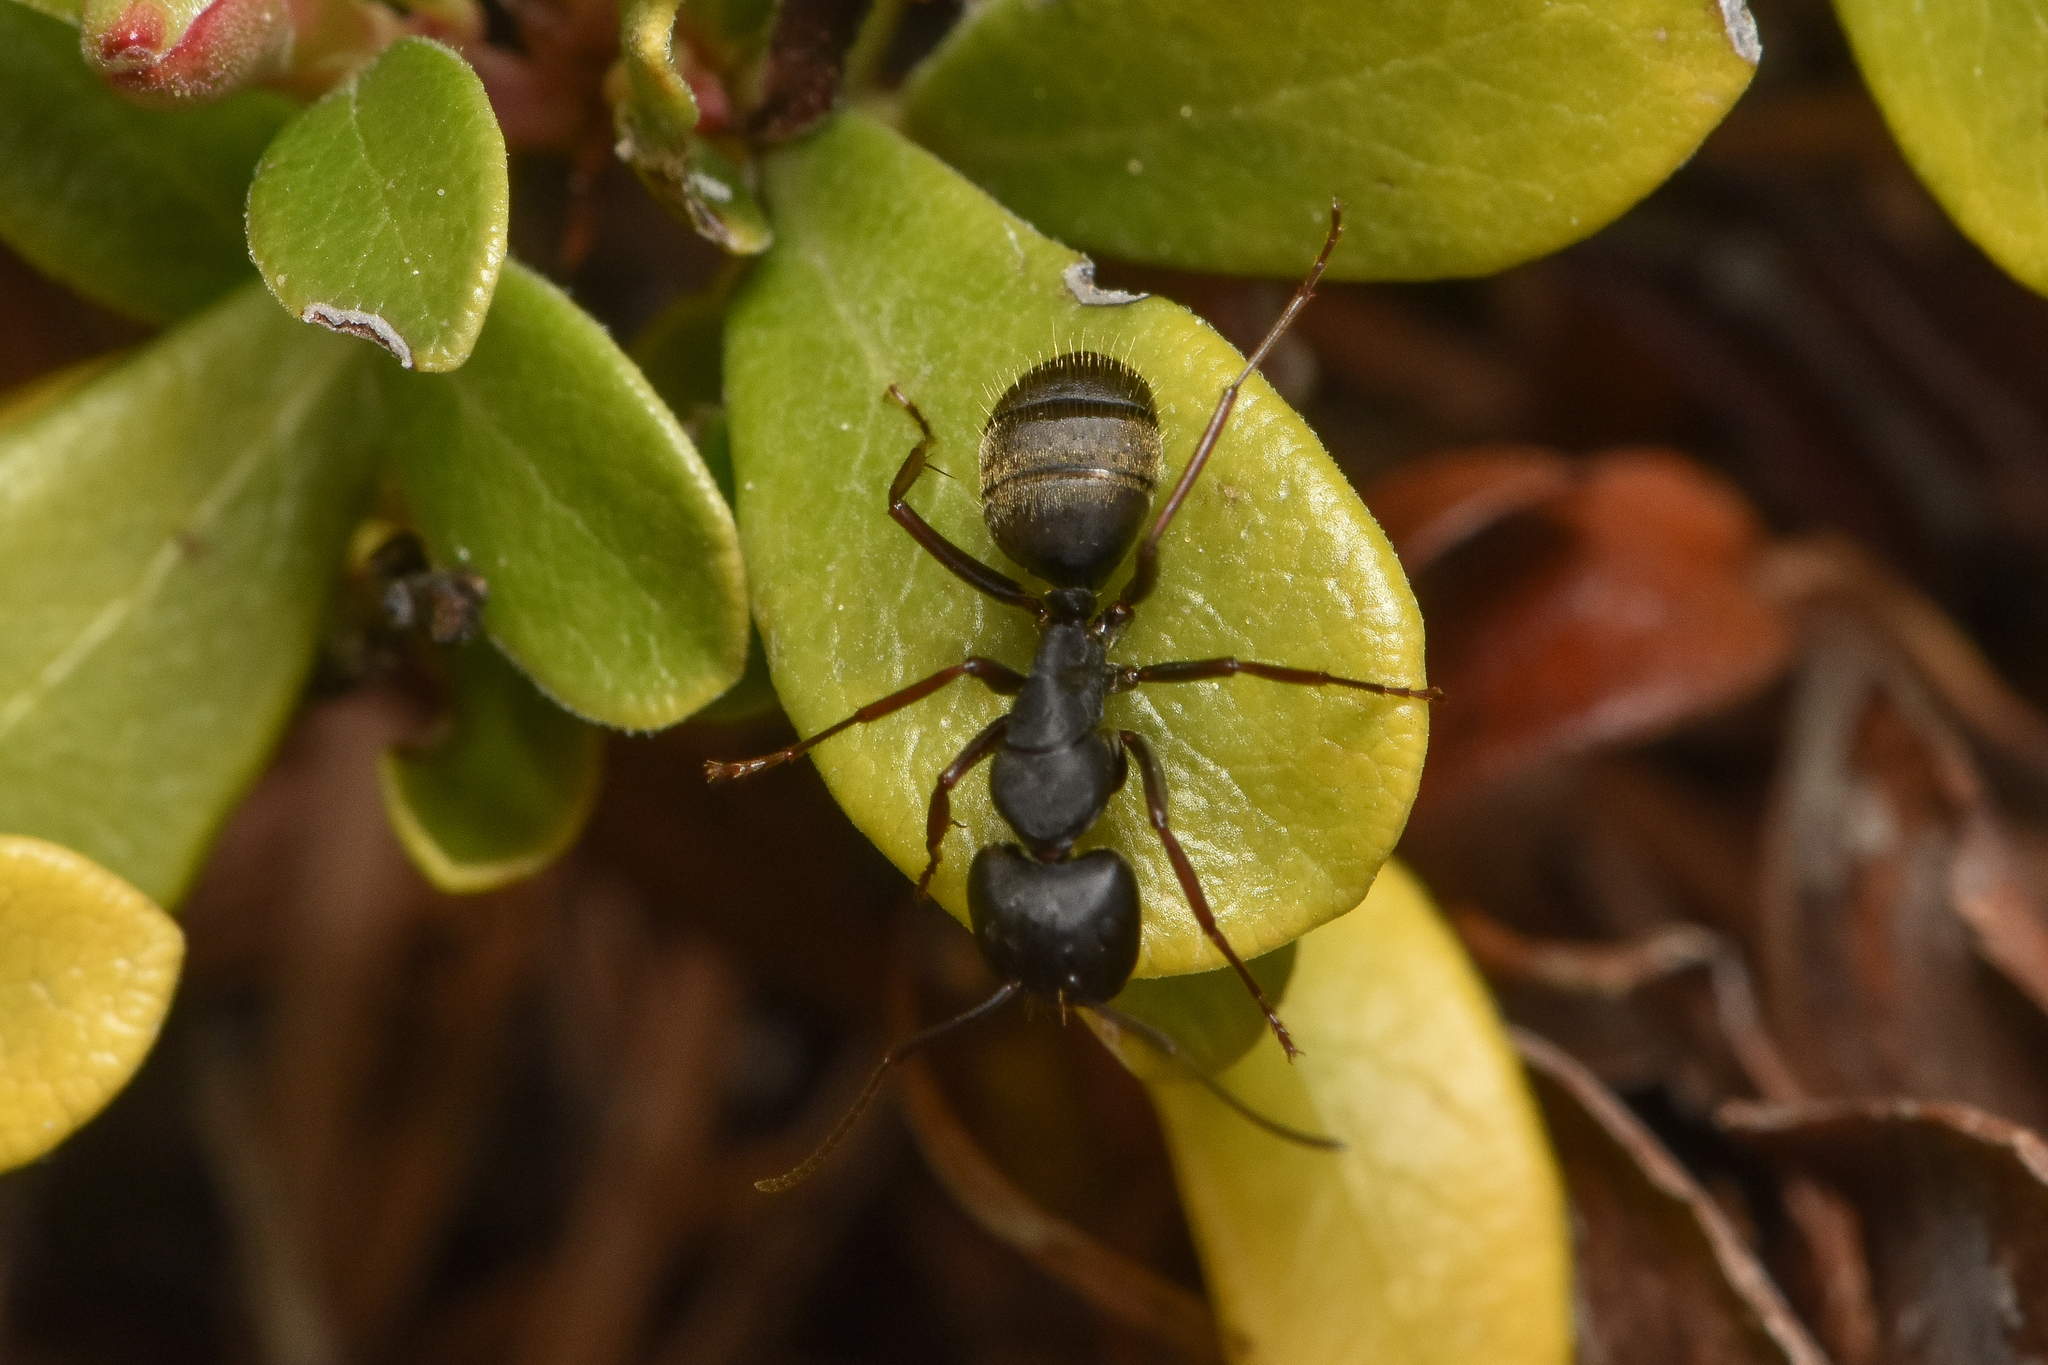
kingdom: Animalia
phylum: Arthropoda
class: Insecta
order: Hymenoptera
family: Formicidae
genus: Camponotus
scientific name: Camponotus modoc
